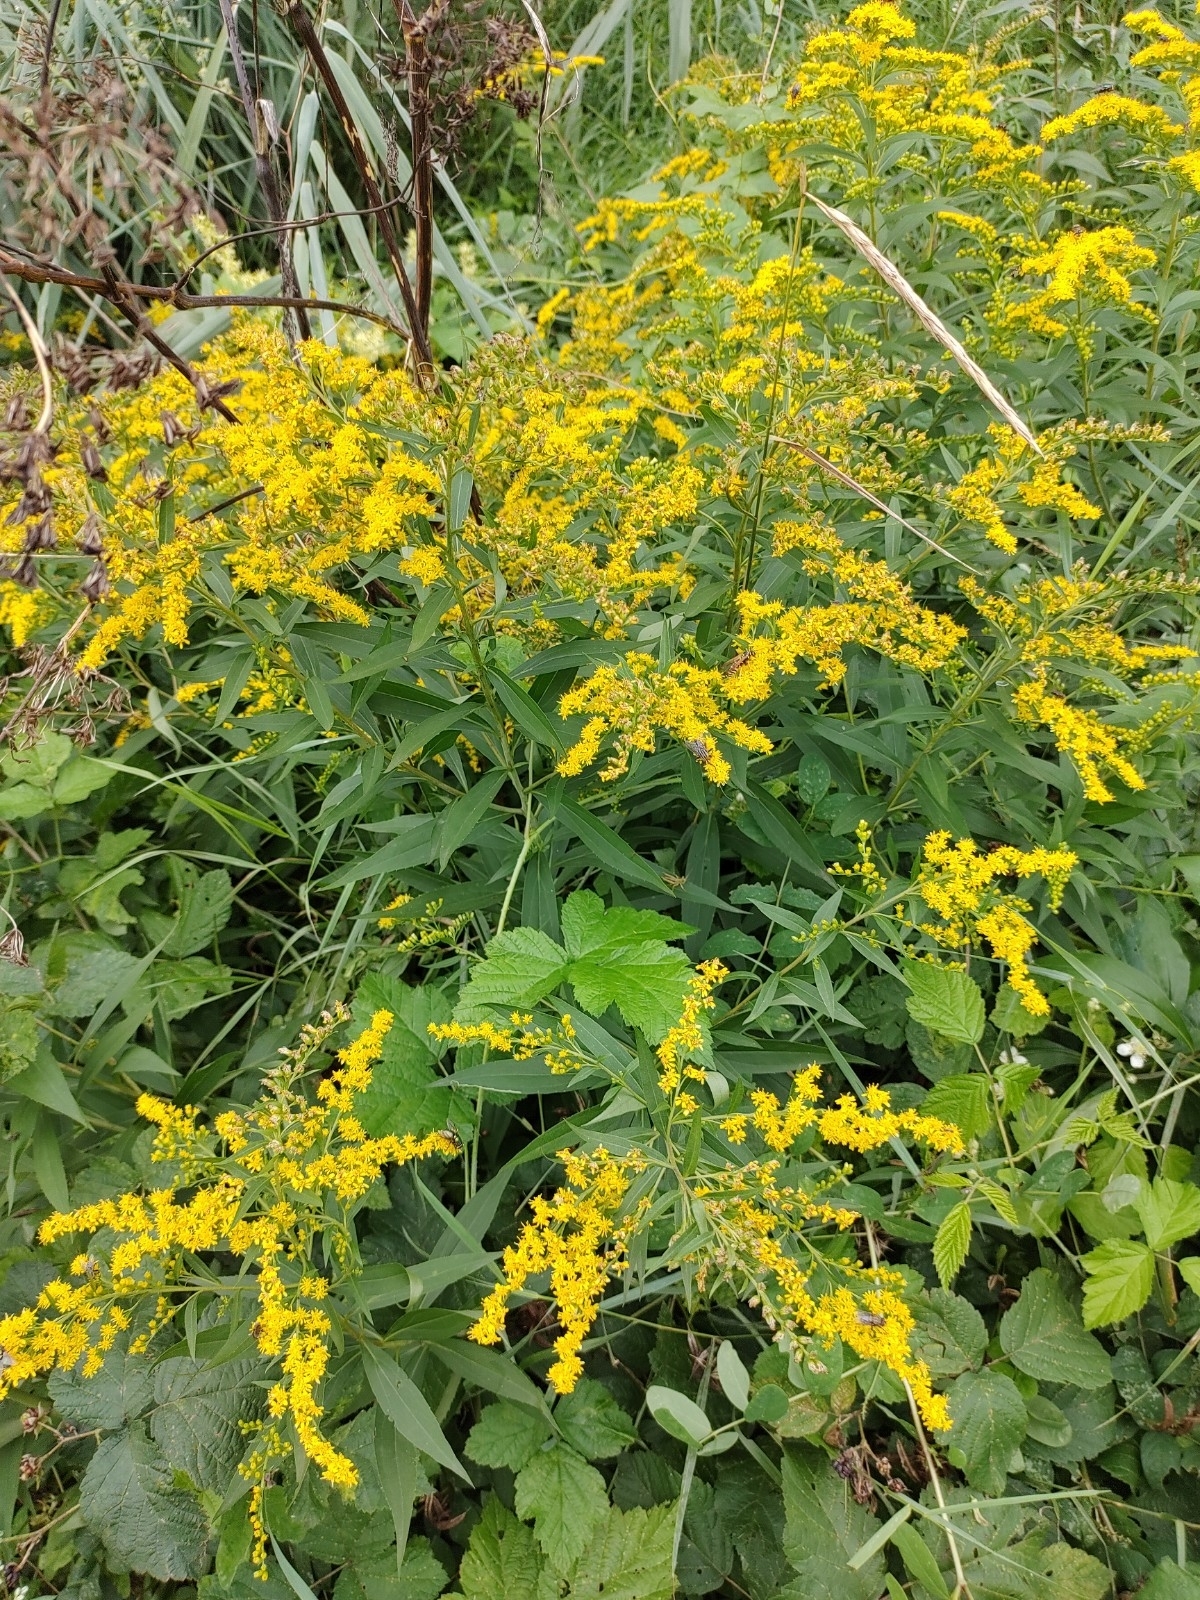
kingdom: Plantae
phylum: Tracheophyta
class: Magnoliopsida
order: Asterales
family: Asteraceae
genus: Solidago
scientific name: Solidago canadensis
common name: Canada goldenrod
